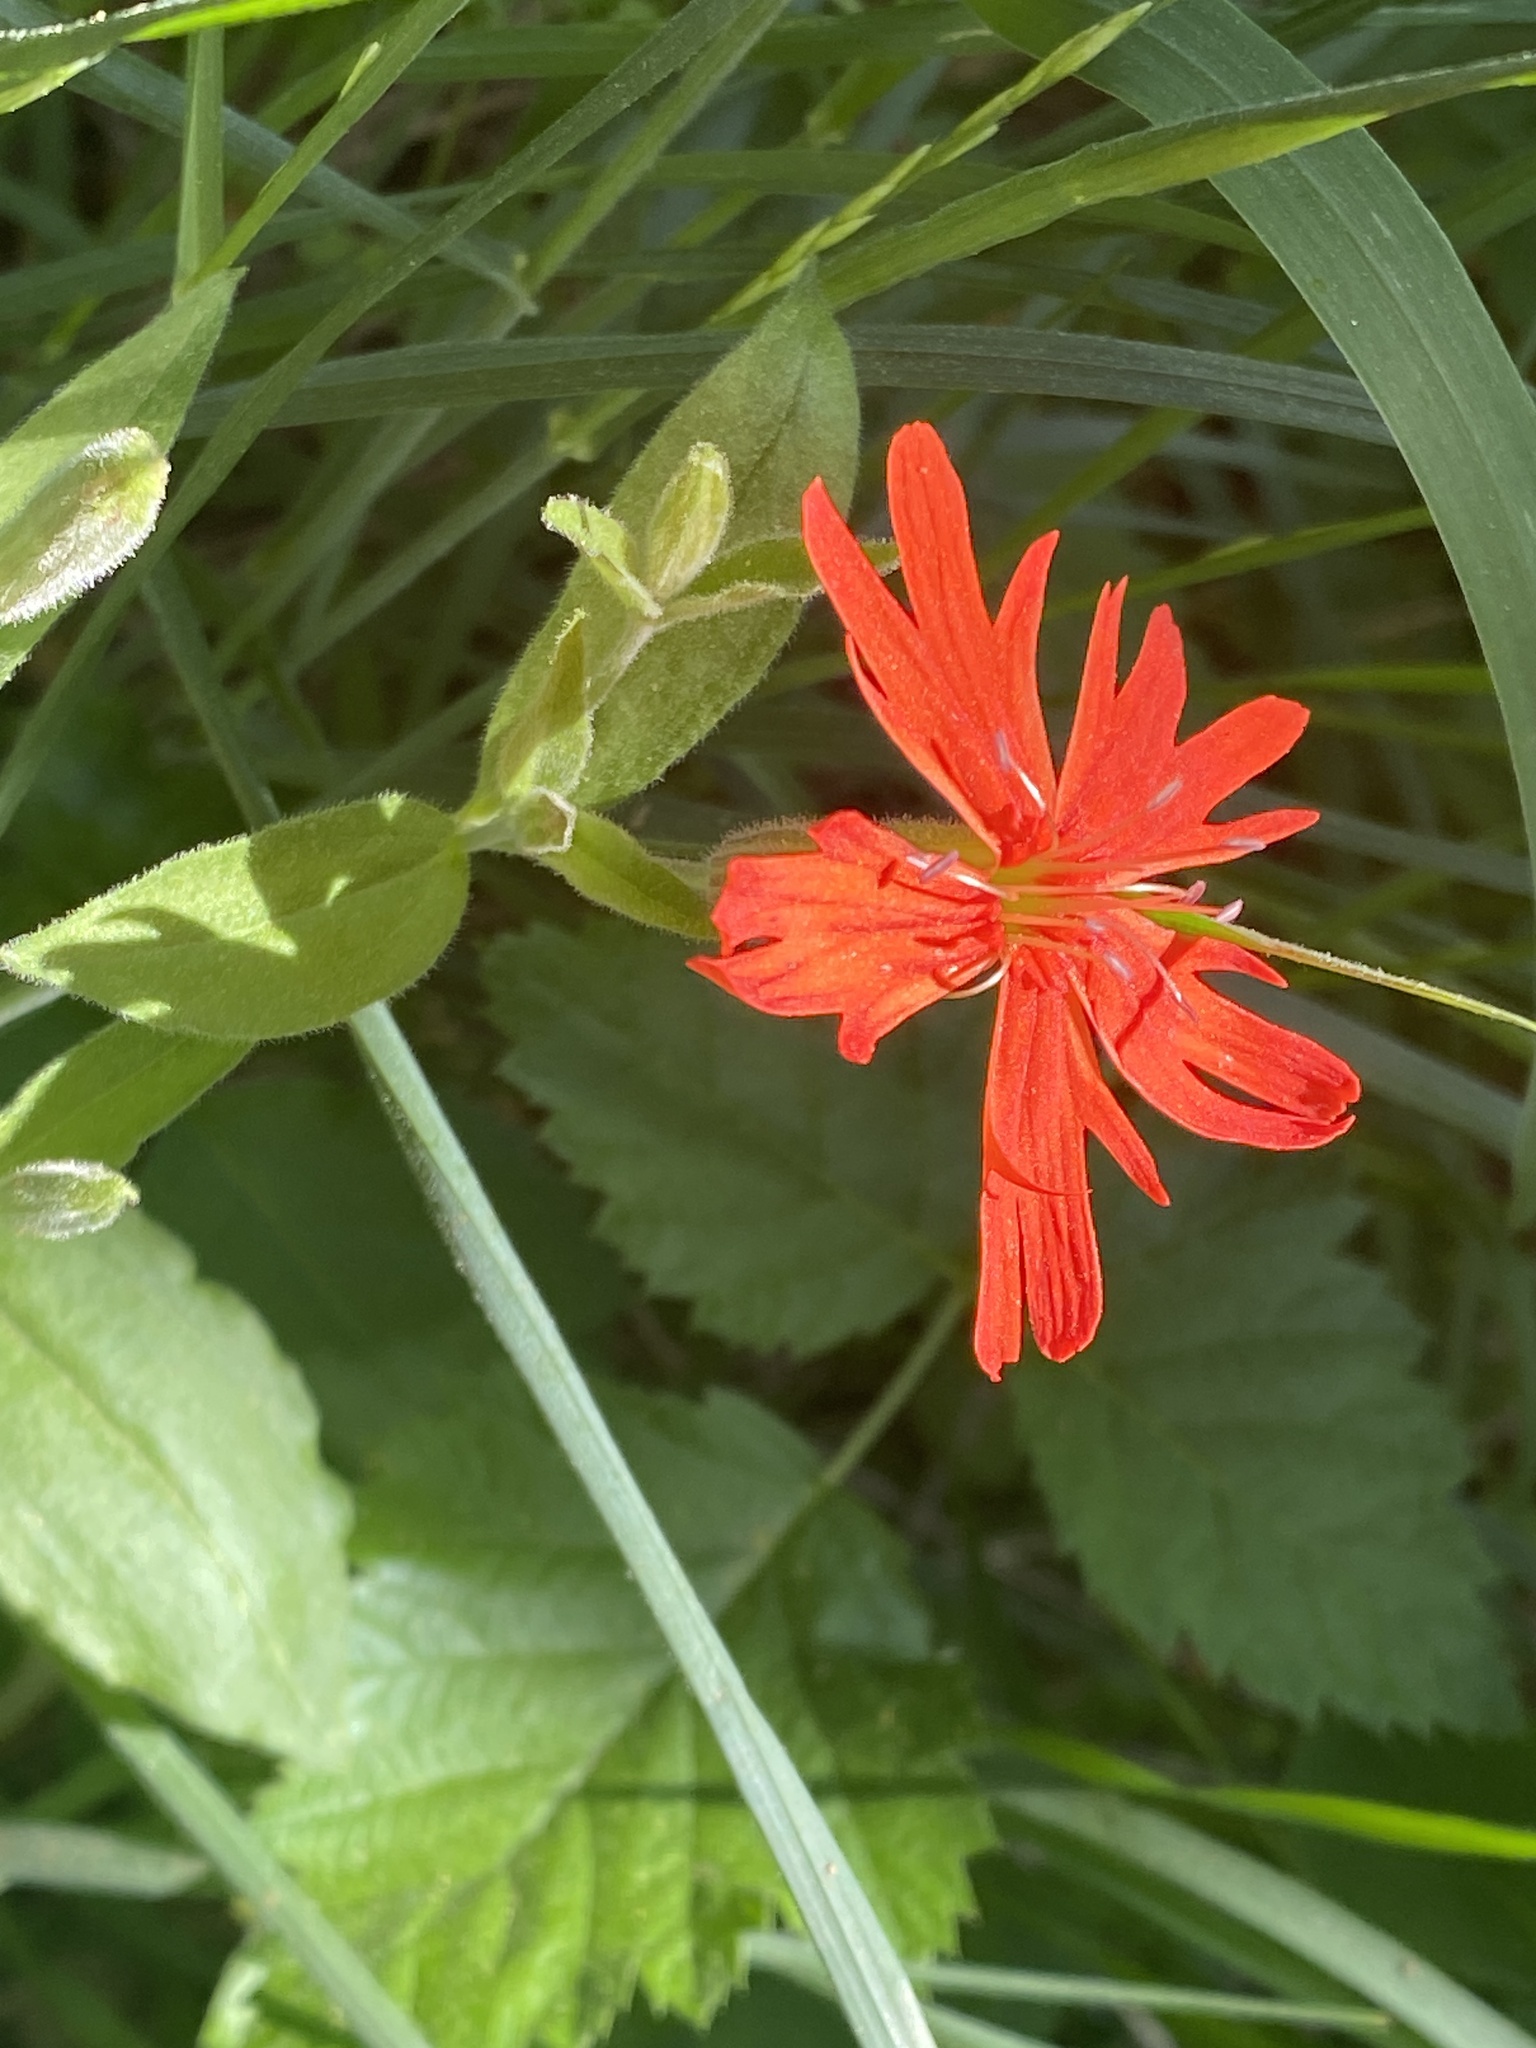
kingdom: Plantae
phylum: Tracheophyta
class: Magnoliopsida
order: Caryophyllales
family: Caryophyllaceae
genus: Silene
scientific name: Silene laciniata
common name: Indian-pink
